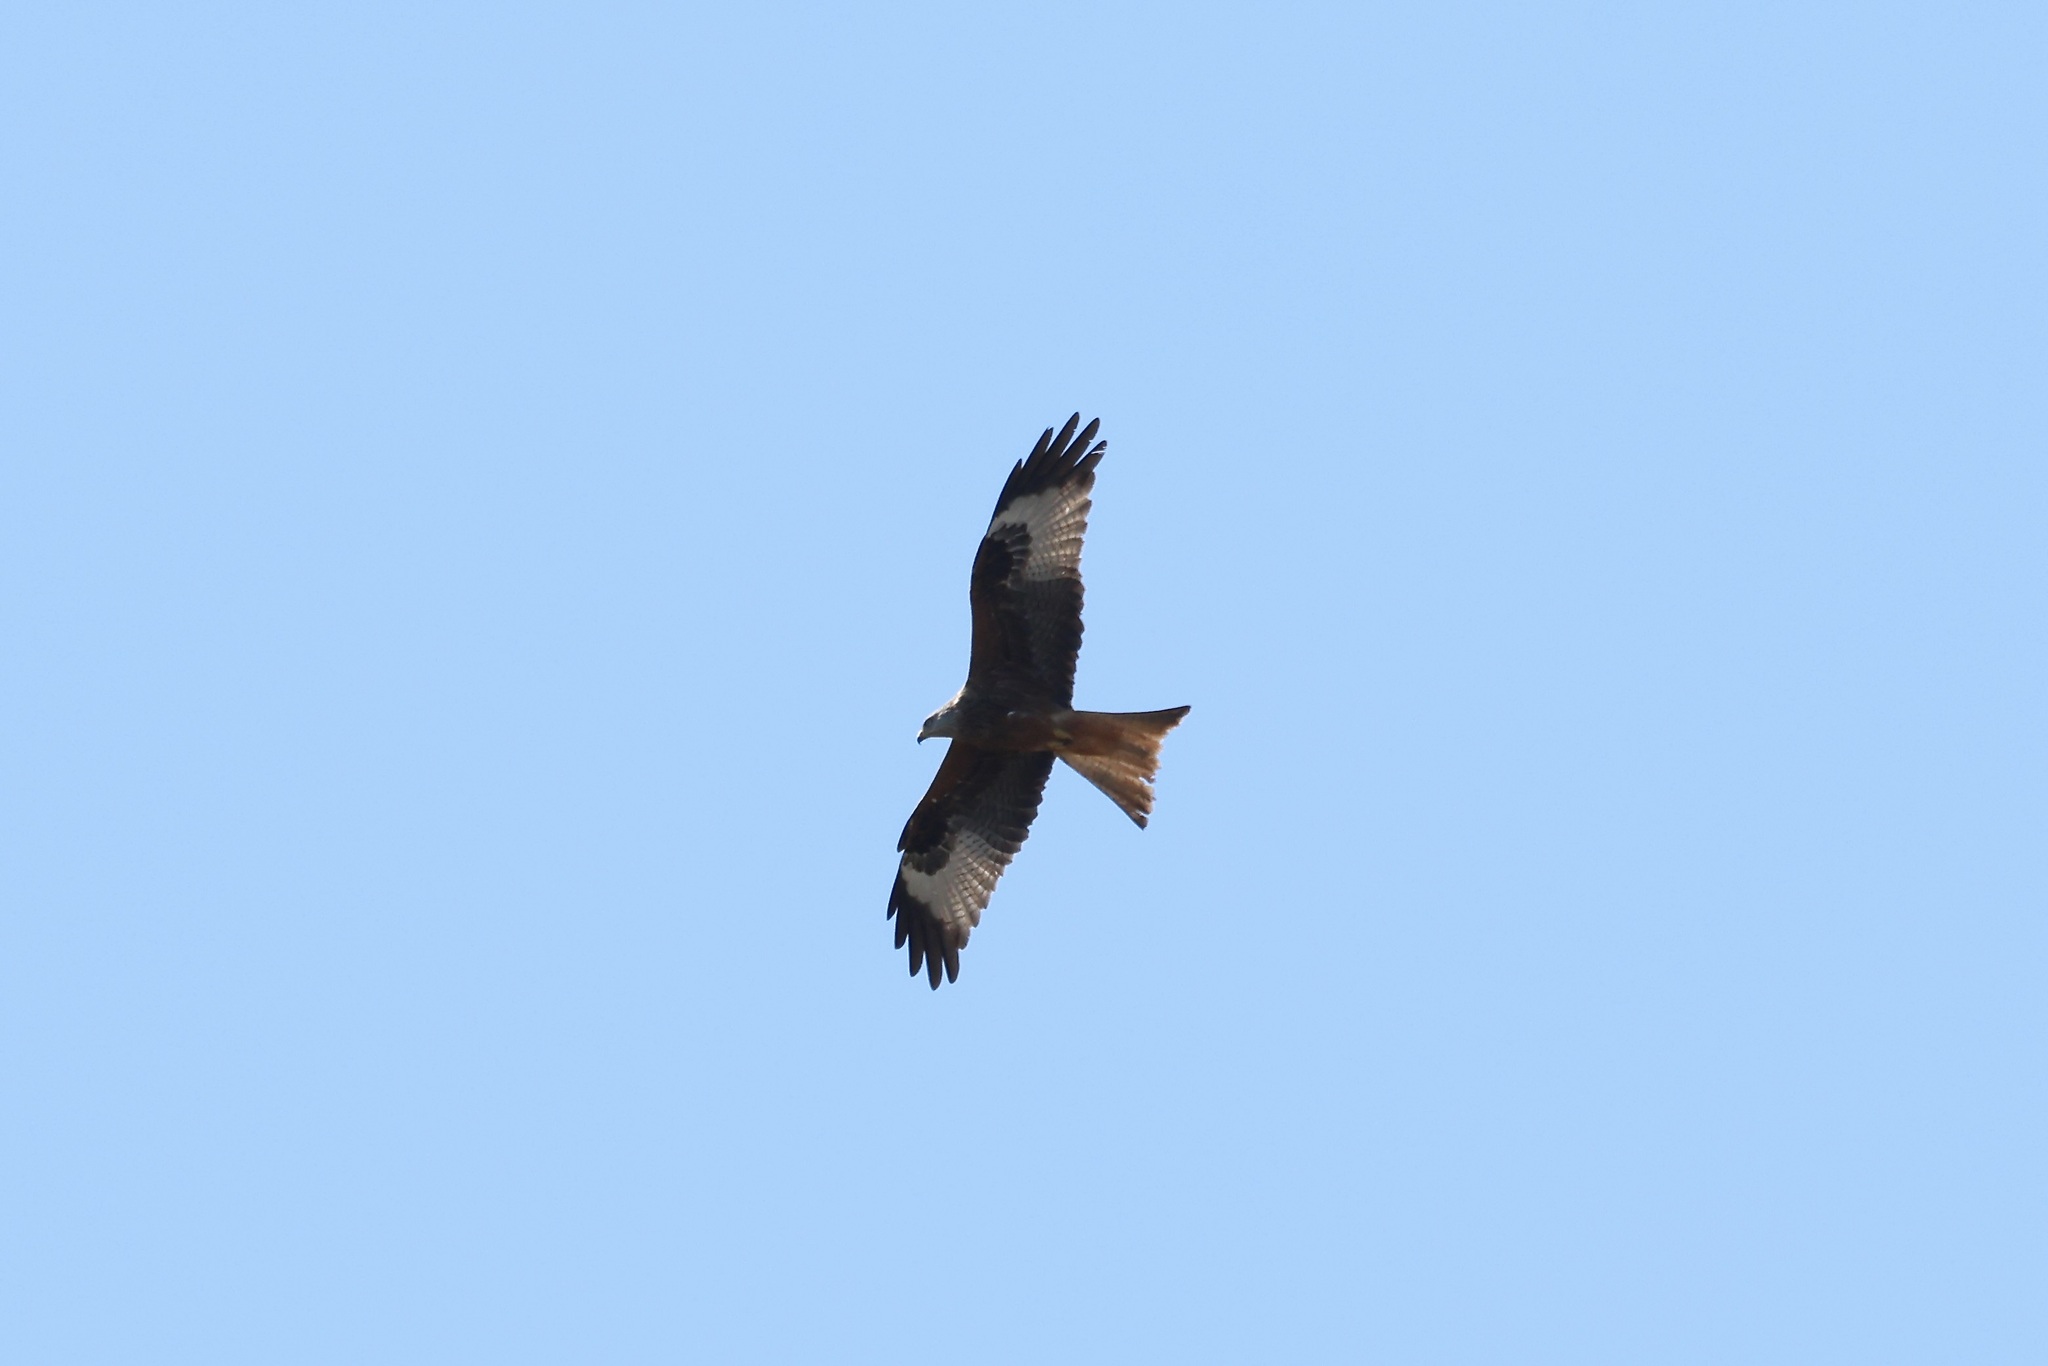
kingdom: Animalia
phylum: Chordata
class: Aves
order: Accipitriformes
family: Accipitridae
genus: Milvus
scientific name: Milvus milvus
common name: Red kite
